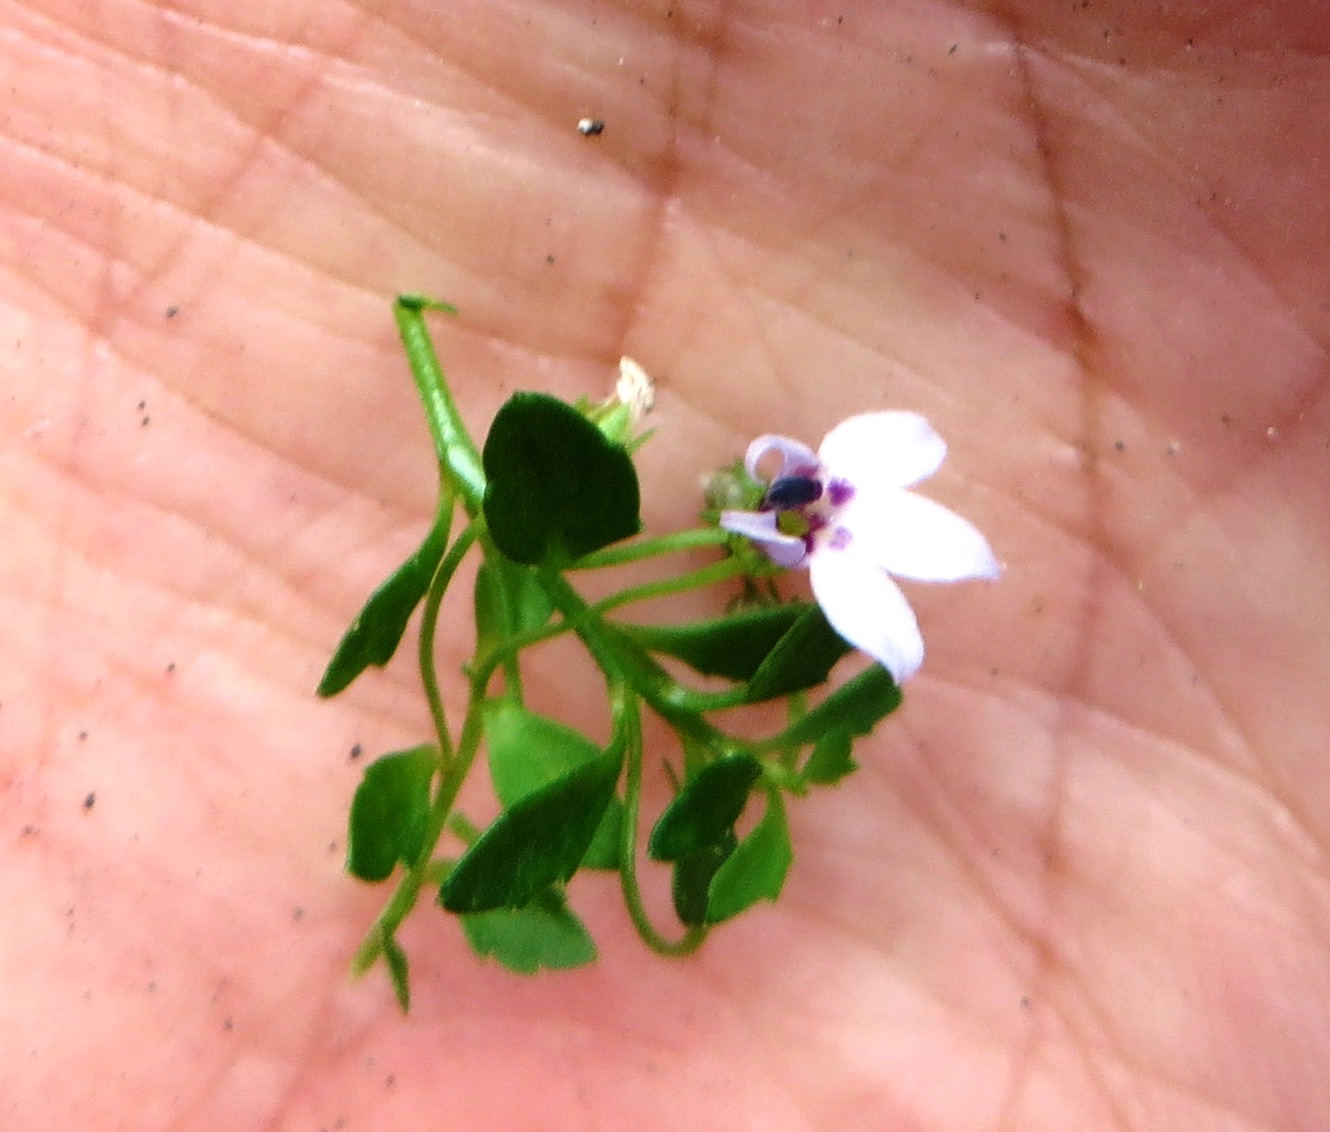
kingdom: Plantae
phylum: Tracheophyta
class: Magnoliopsida
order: Asterales
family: Campanulaceae
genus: Unigenes
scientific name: Unigenes humifusa
